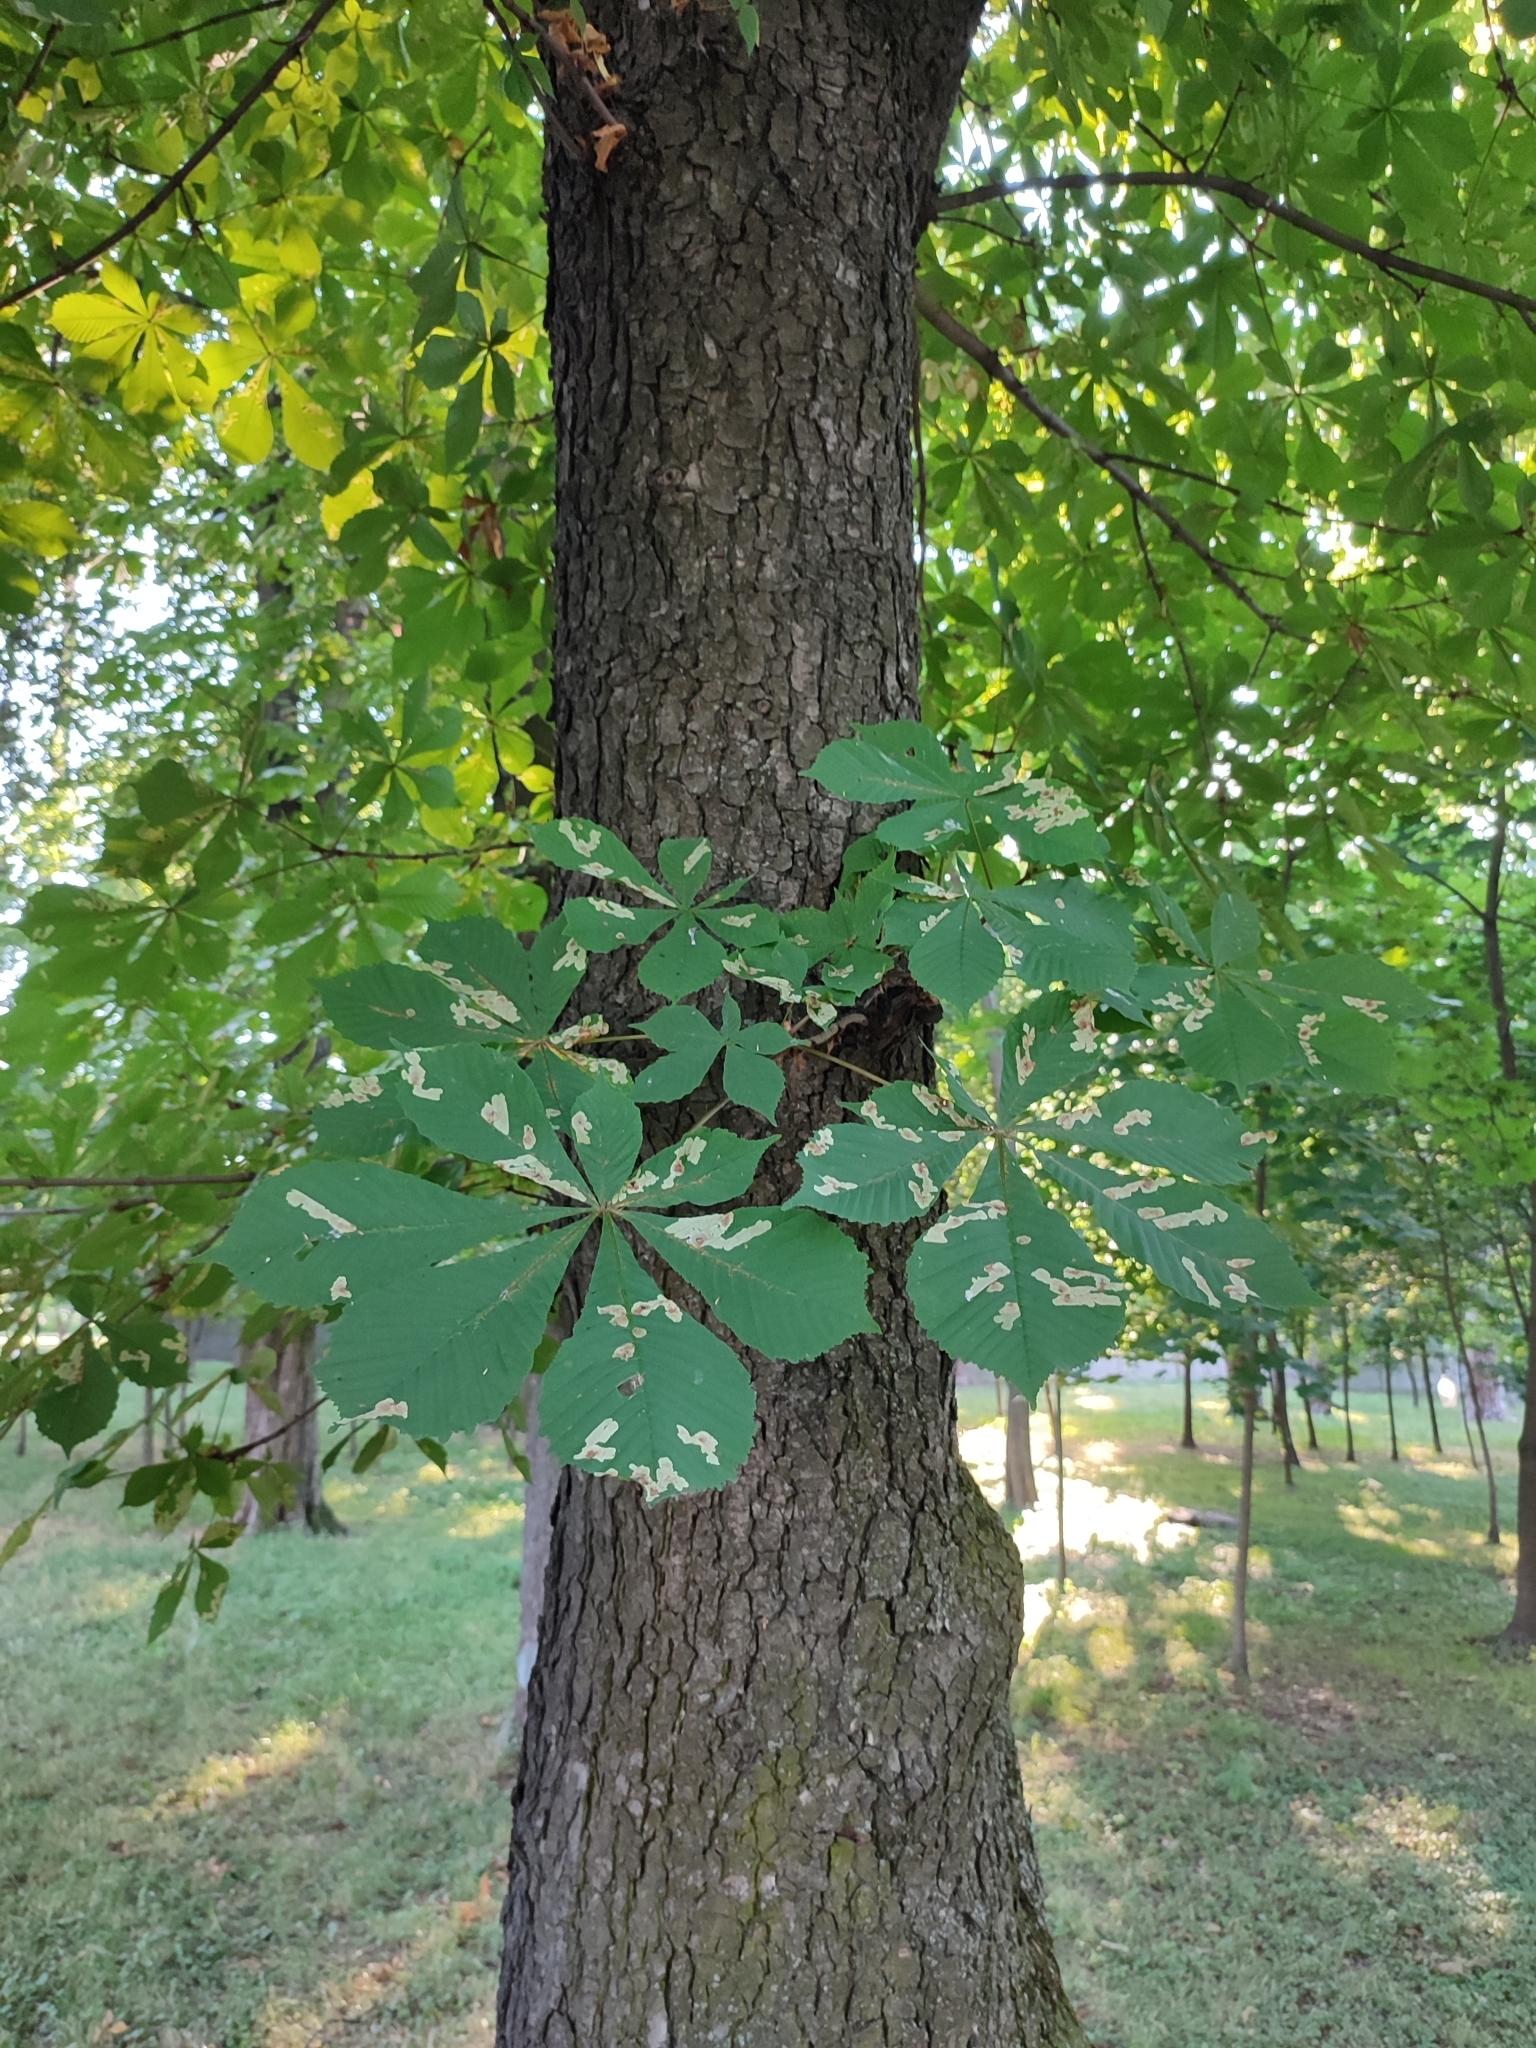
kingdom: Animalia
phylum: Arthropoda
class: Insecta
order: Lepidoptera
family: Gracillariidae
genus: Cameraria
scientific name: Cameraria ohridella
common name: Horse-chestnut leaf-miner
